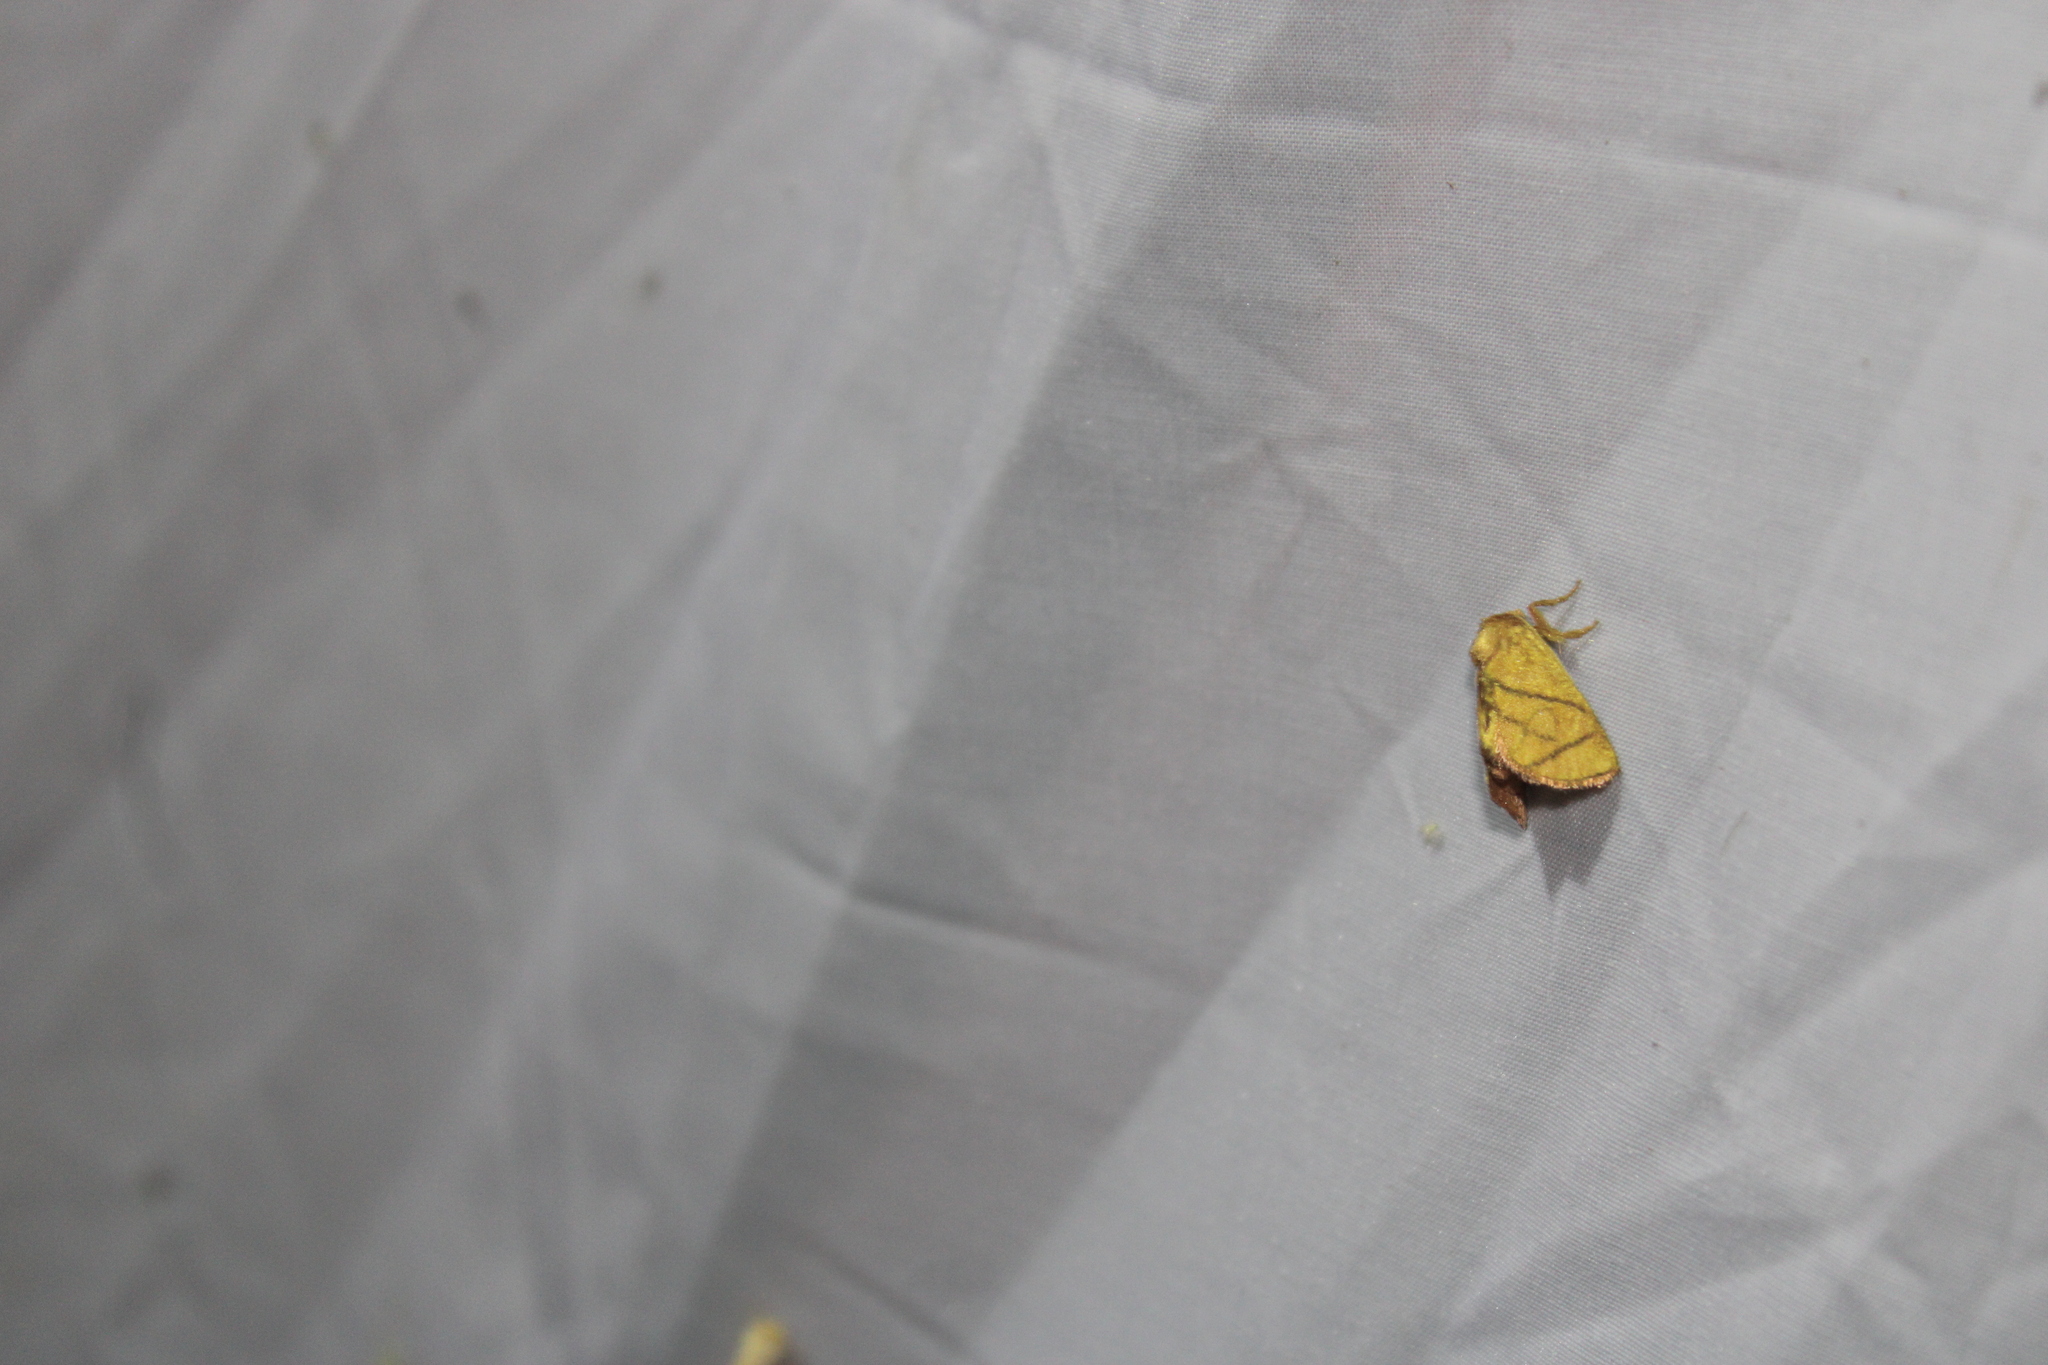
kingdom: Animalia
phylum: Arthropoda
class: Insecta
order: Lepidoptera
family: Limacodidae
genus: Apoda
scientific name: Apoda y-inversa
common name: Yellow-collared slug moth
